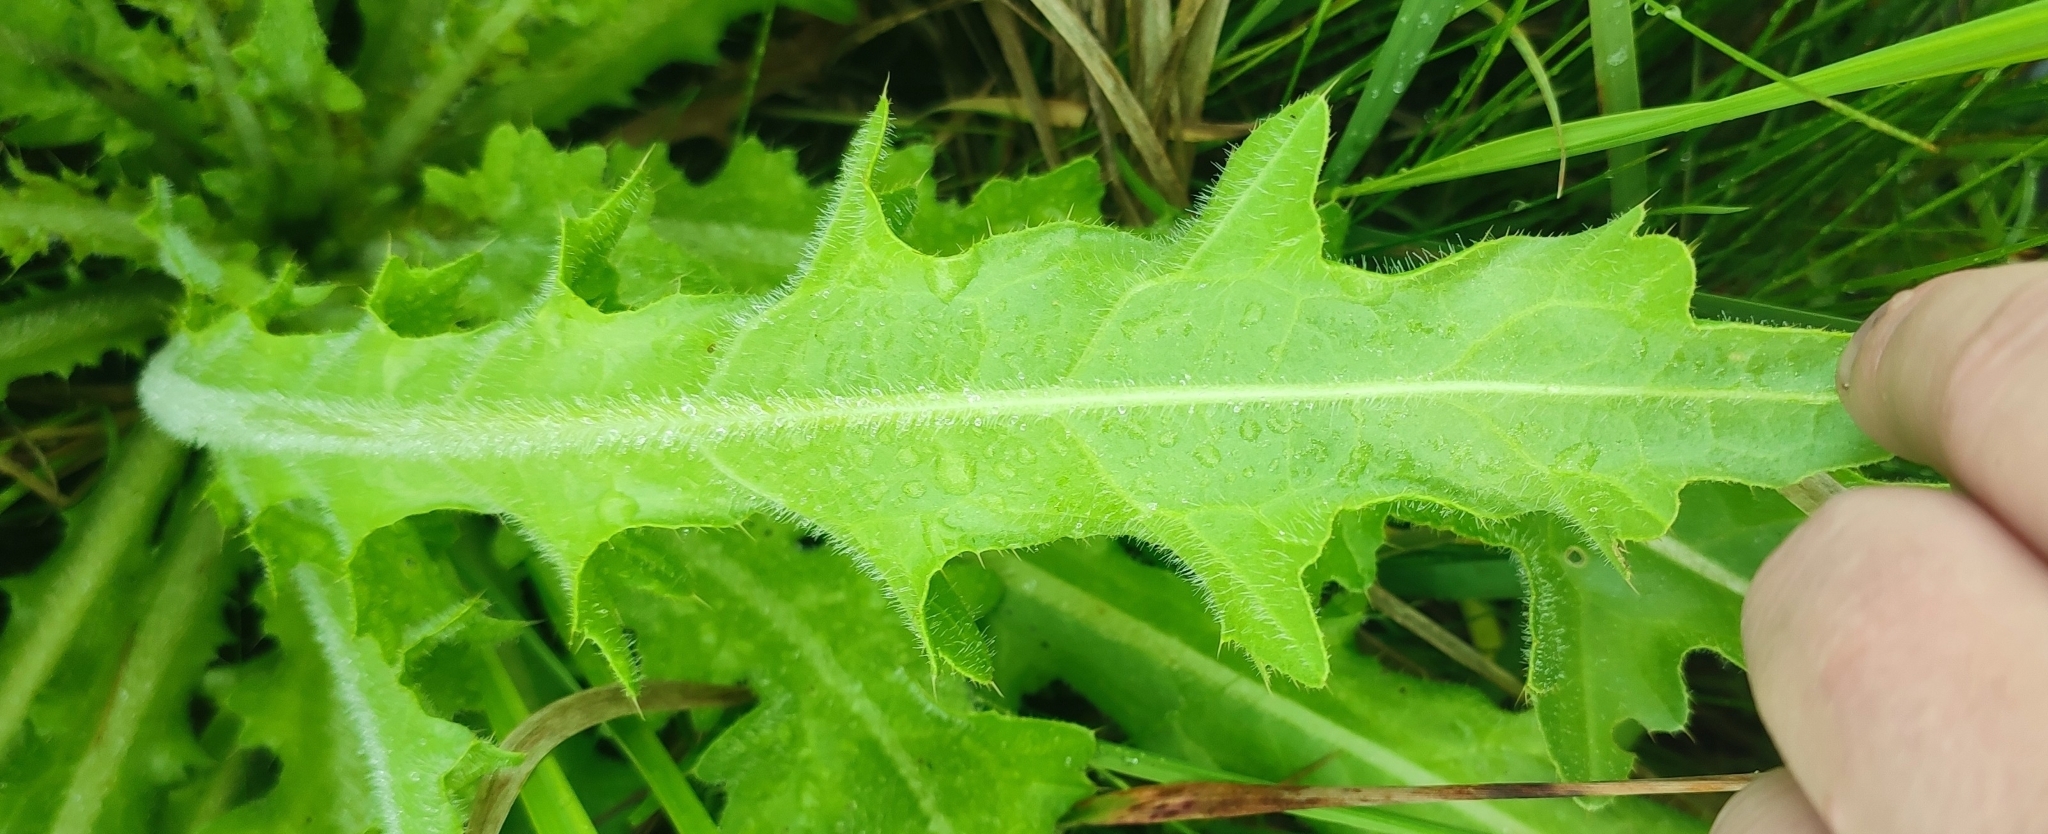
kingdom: Plantae
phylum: Tracheophyta
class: Magnoliopsida
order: Asterales
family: Asteraceae
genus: Cirsium
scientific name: Cirsium esculentum
